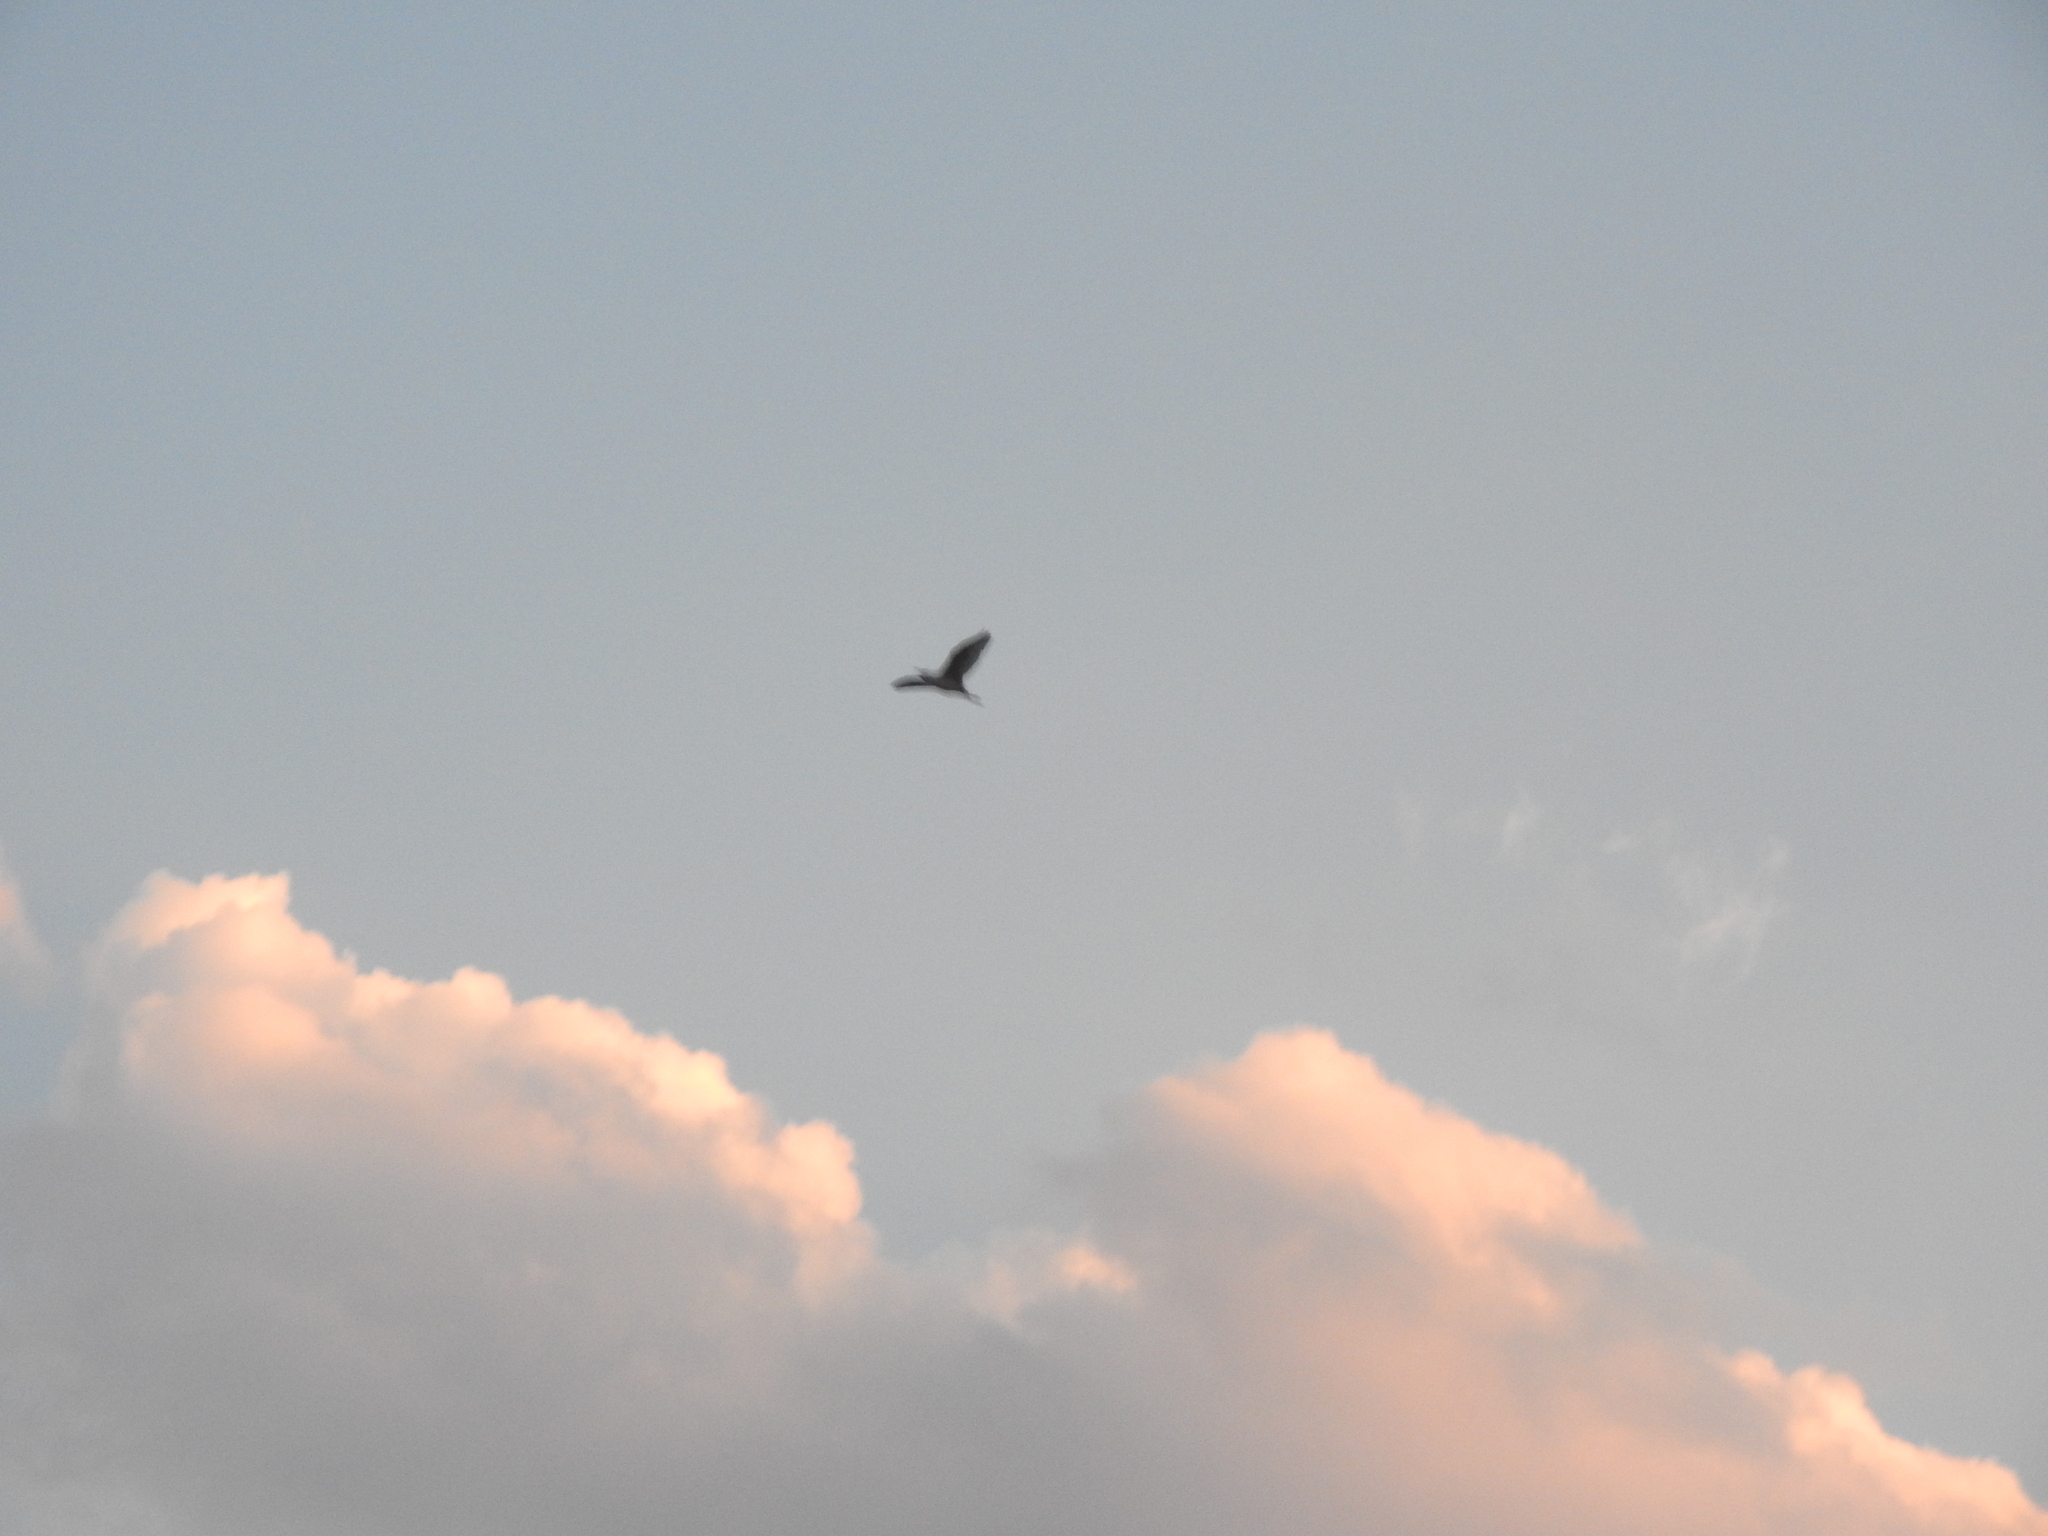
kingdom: Animalia
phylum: Chordata
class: Aves
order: Pelecaniformes
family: Ardeidae
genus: Bubulcus
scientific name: Bubulcus ibis
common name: Cattle egret
